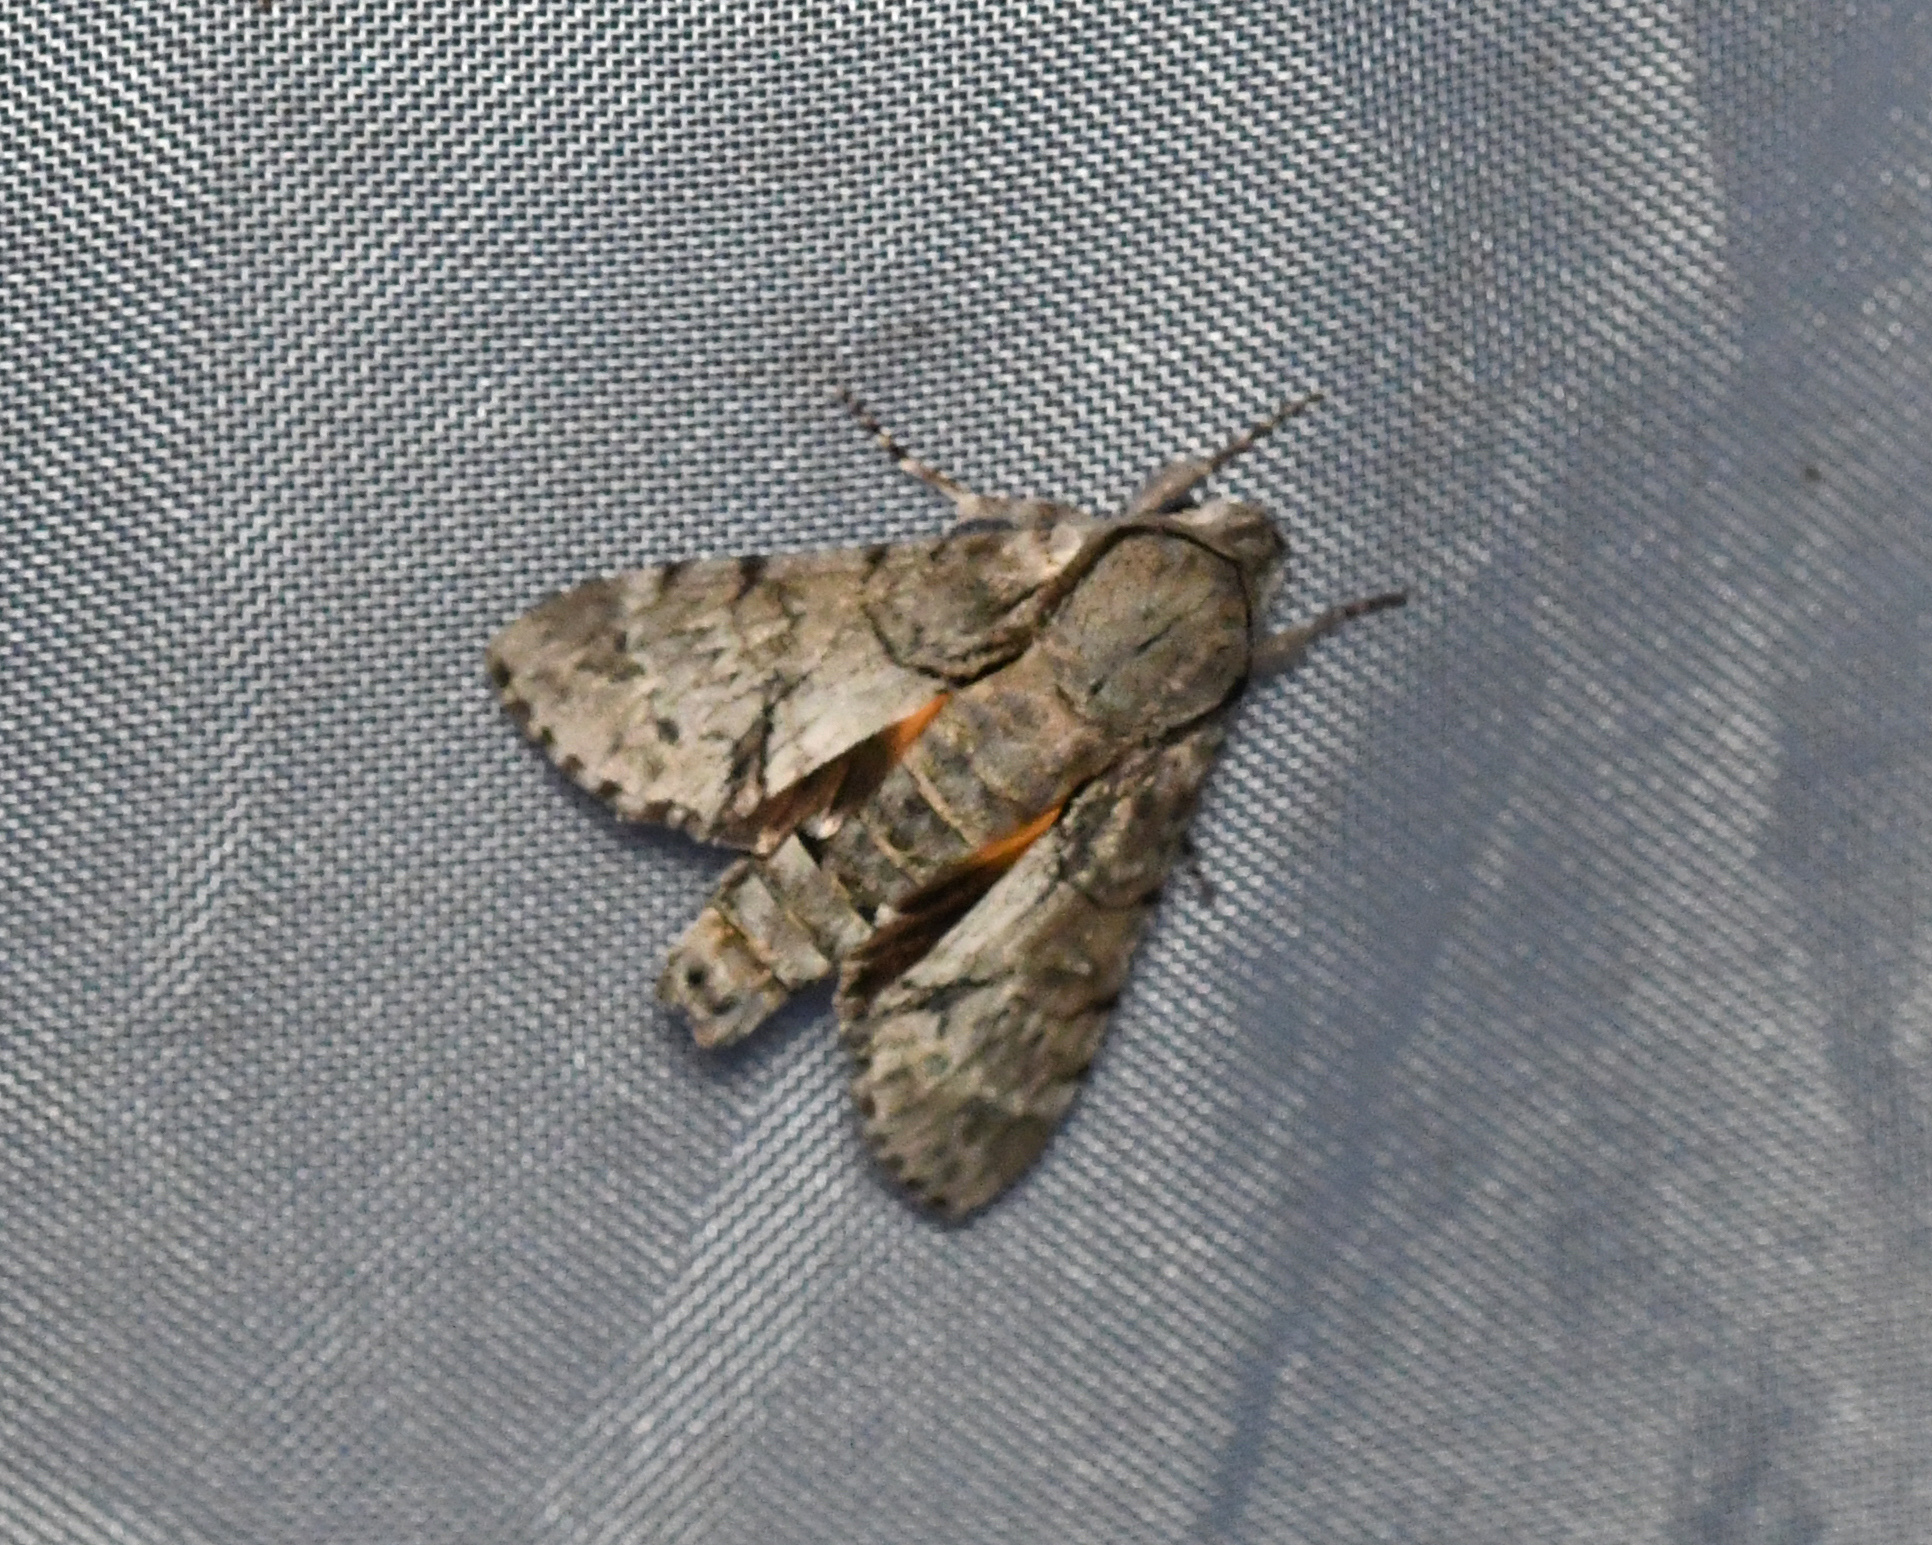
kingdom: Animalia
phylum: Arthropoda
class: Insecta
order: Lepidoptera
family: Sphingidae
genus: Cautethia
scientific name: Cautethia noctuiformis
